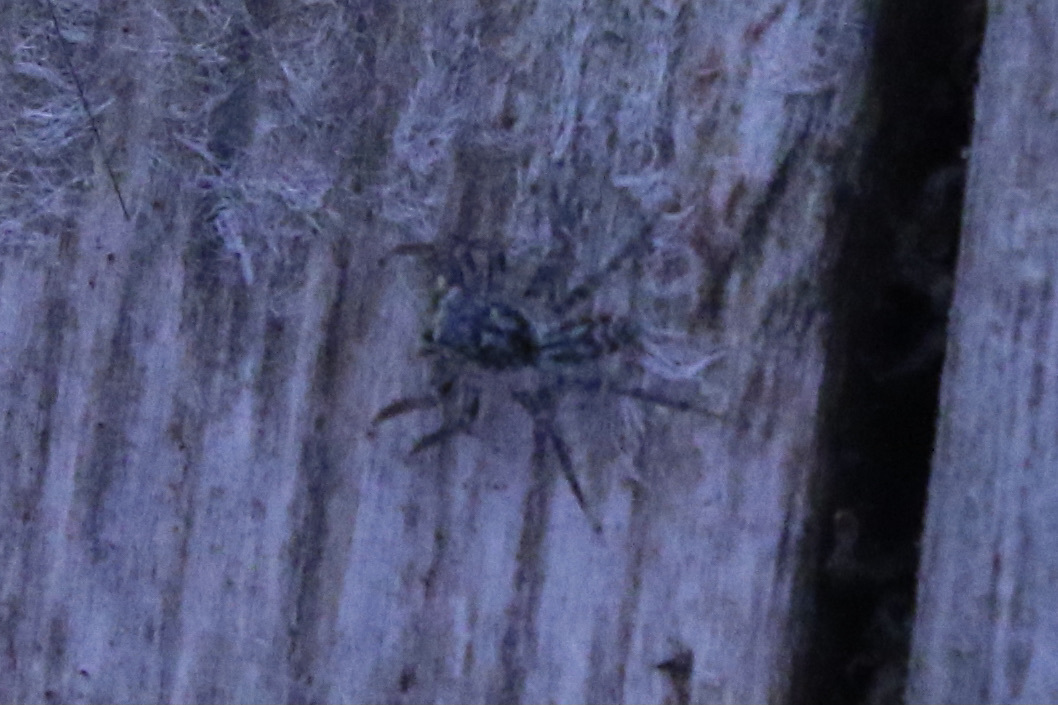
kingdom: Animalia
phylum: Arthropoda
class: Arachnida
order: Araneae
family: Salticidae
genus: Maevia
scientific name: Maevia inclemens
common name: Dimorphic jumper
